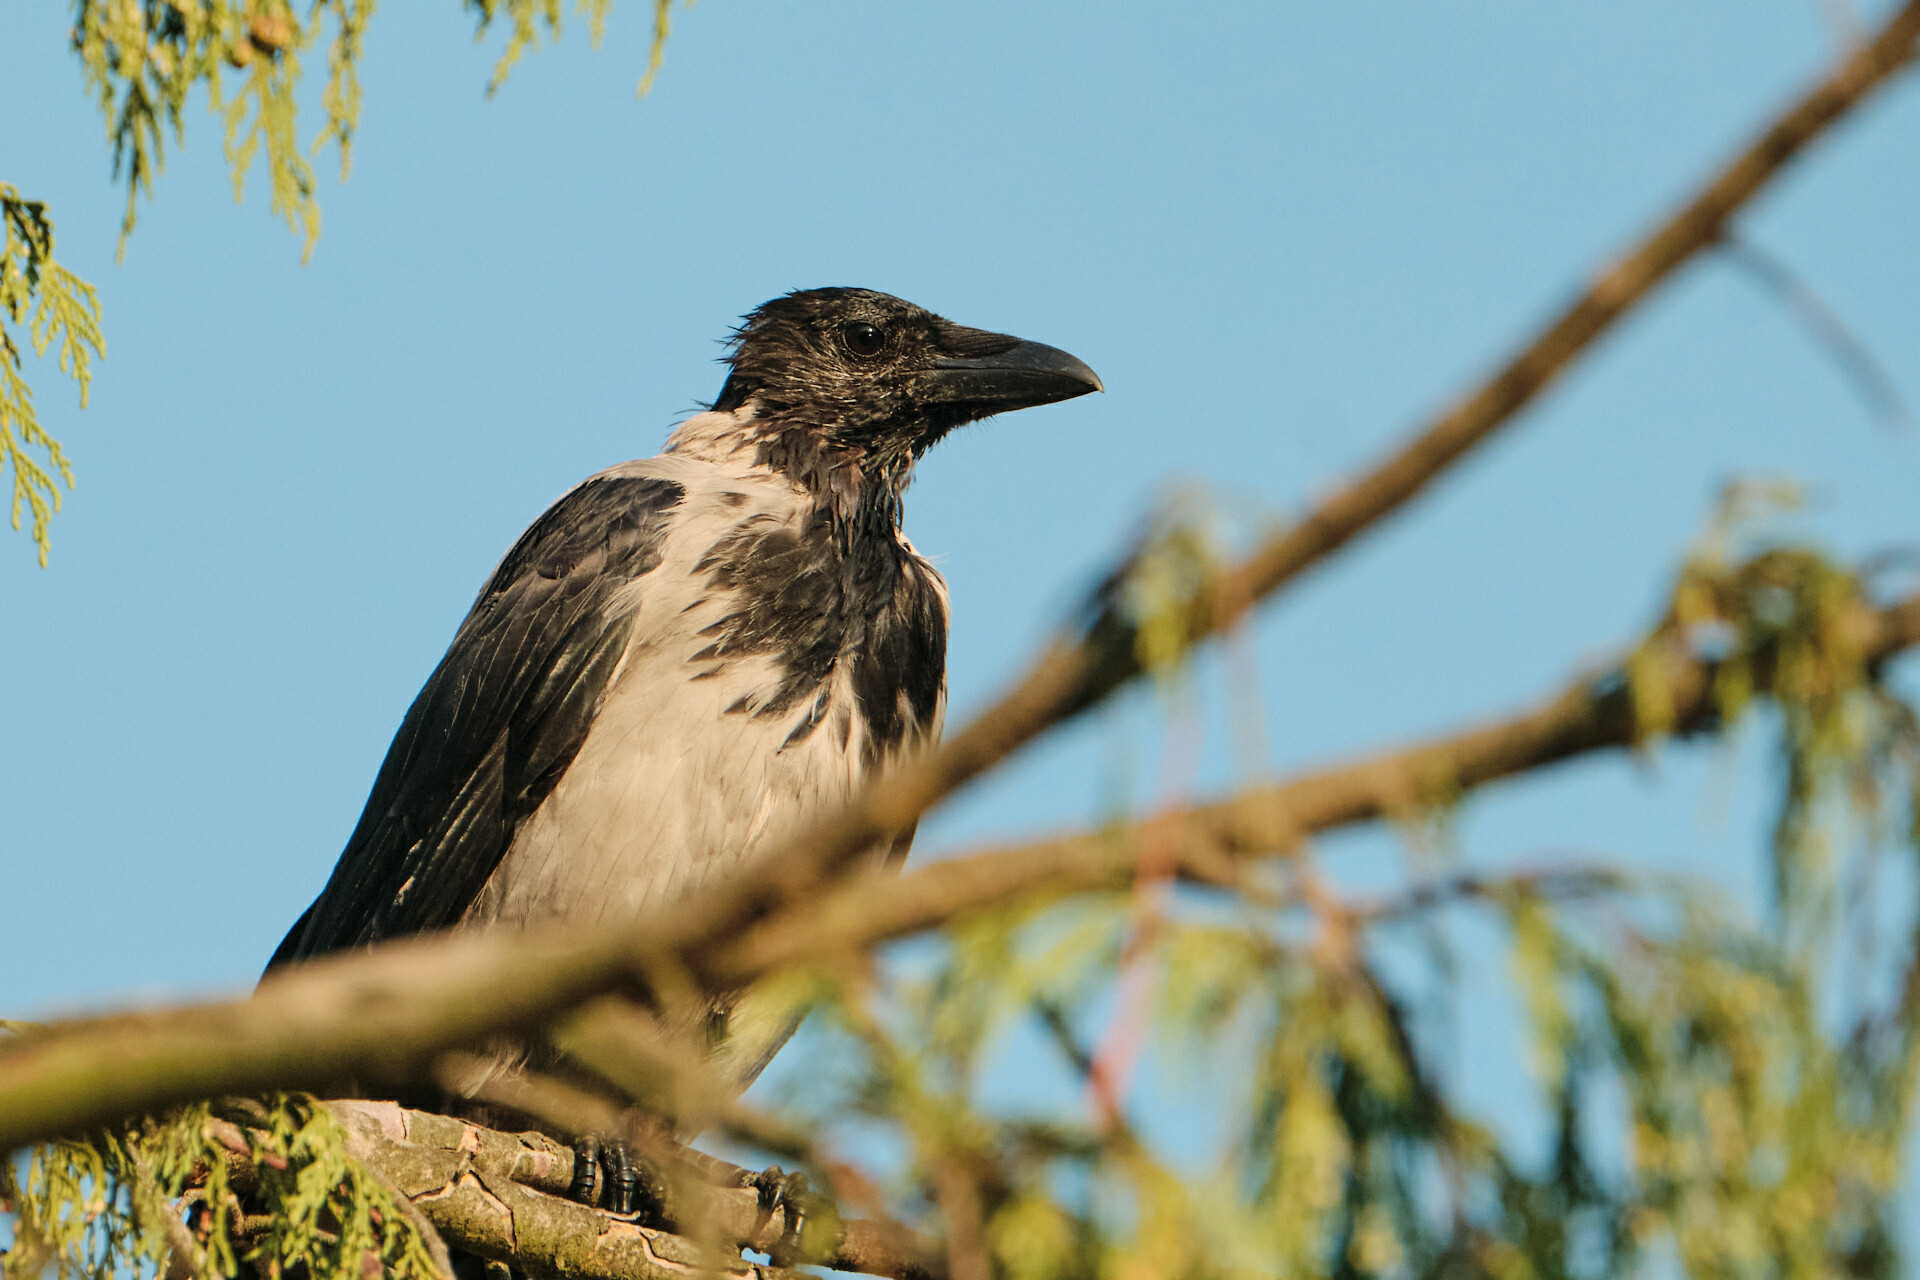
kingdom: Animalia
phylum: Chordata
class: Aves
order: Passeriformes
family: Corvidae
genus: Corvus
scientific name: Corvus cornix
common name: Hooded crow
